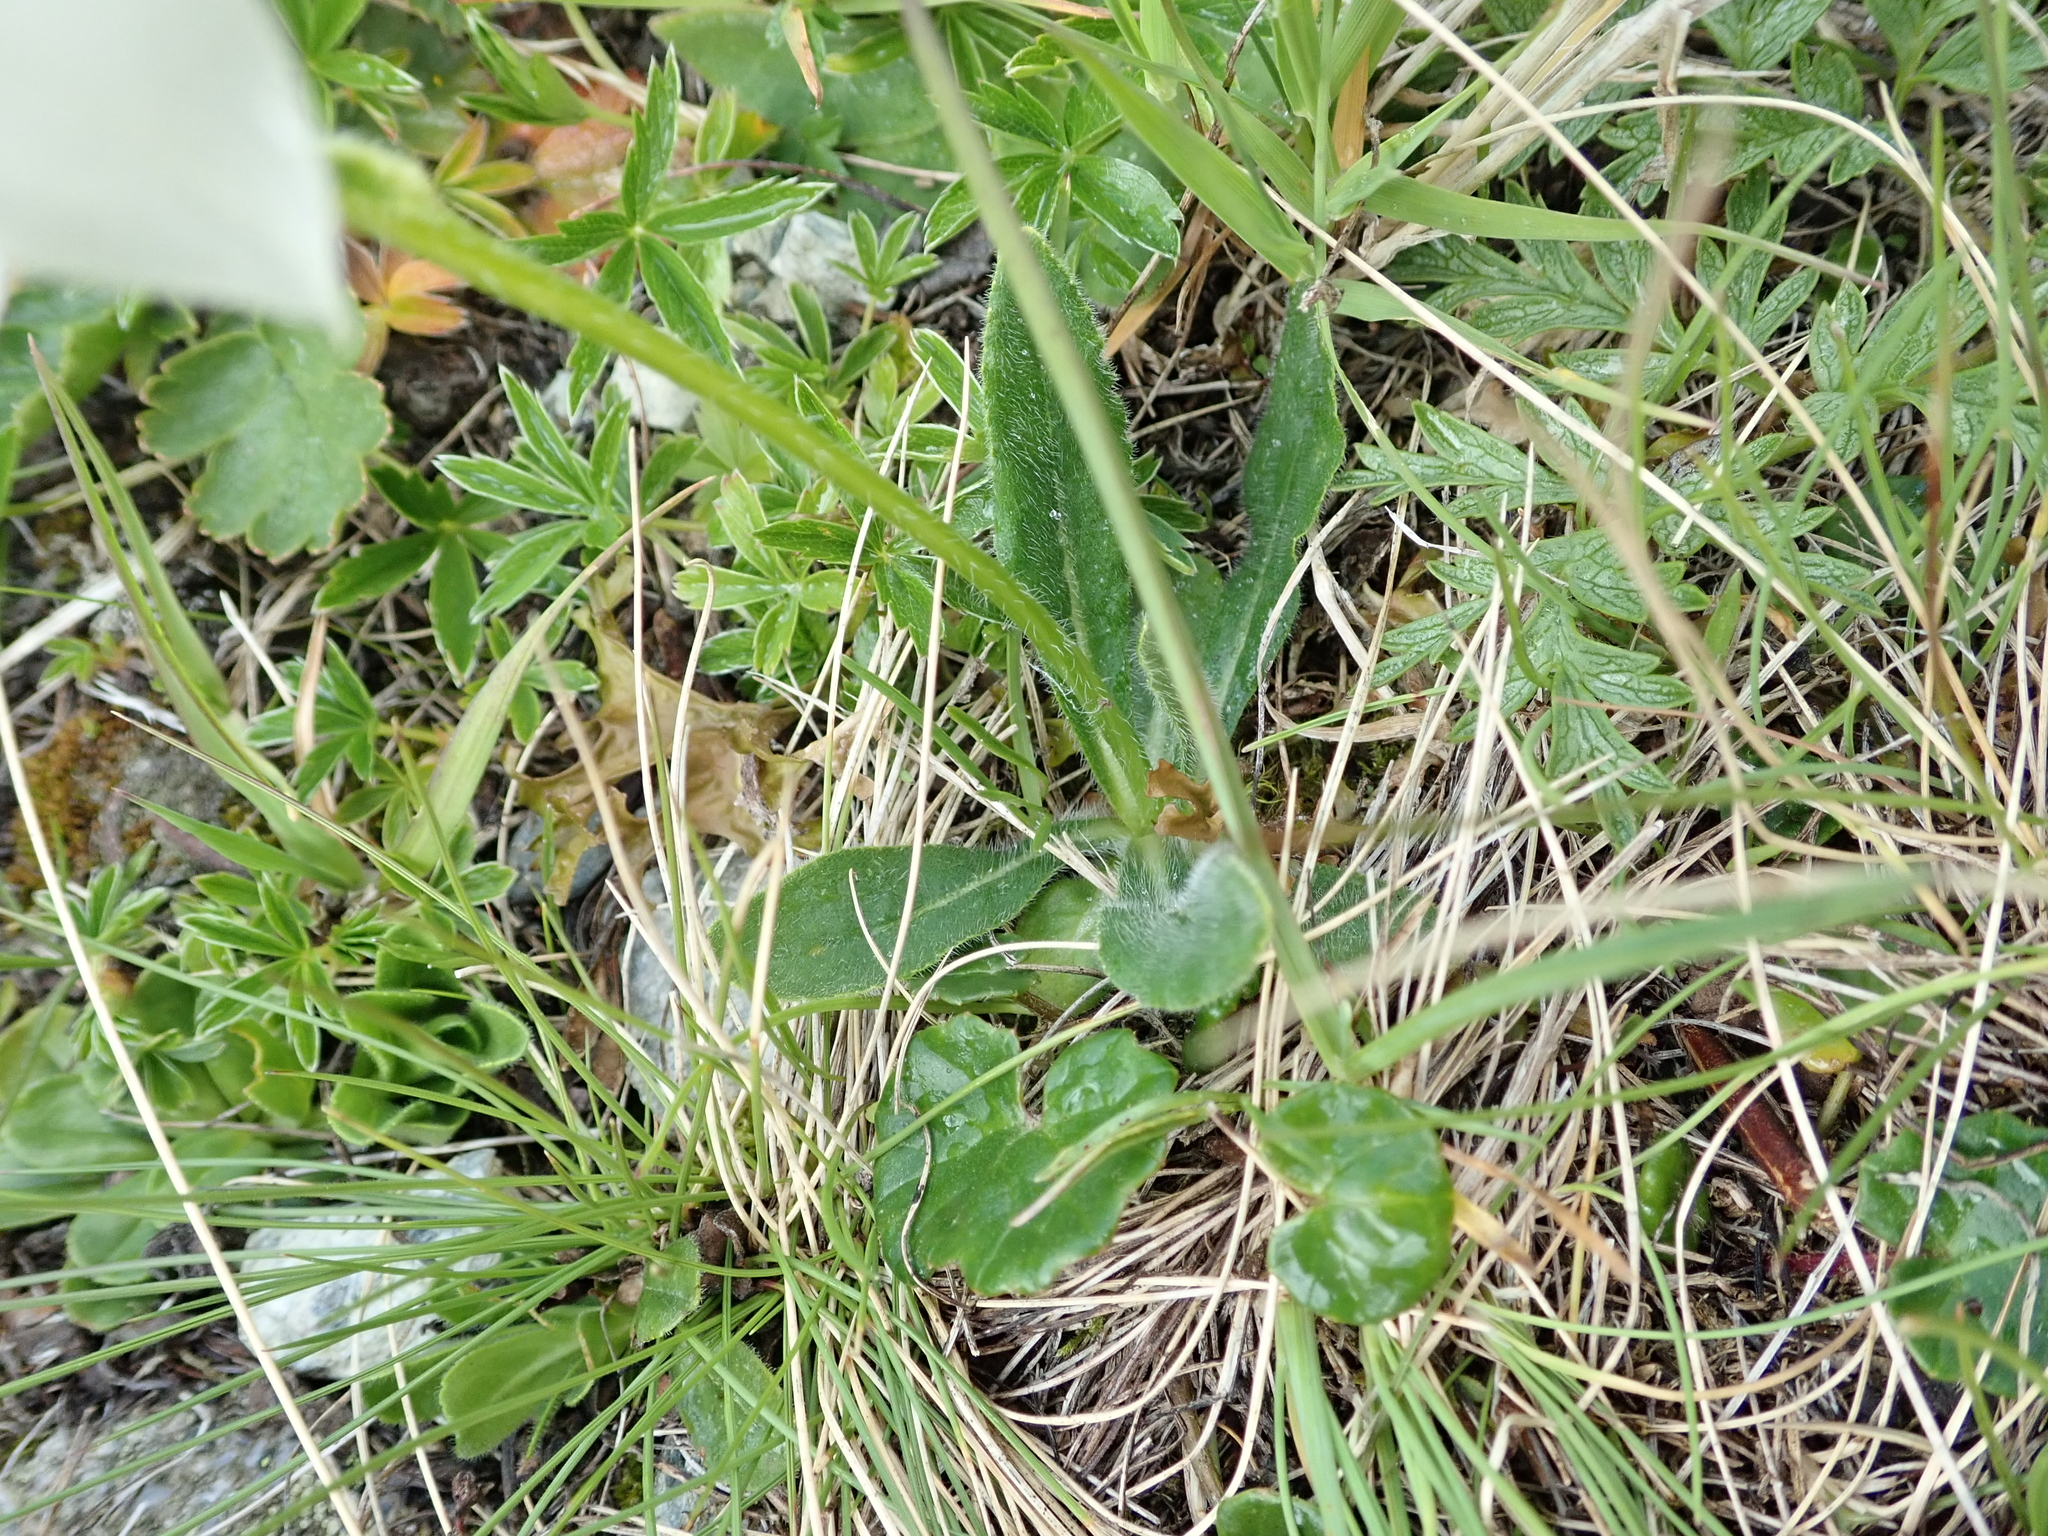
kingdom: Plantae
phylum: Tracheophyta
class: Magnoliopsida
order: Asterales
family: Campanulaceae
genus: Campanula
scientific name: Campanula barbata
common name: Bearded bellflower
